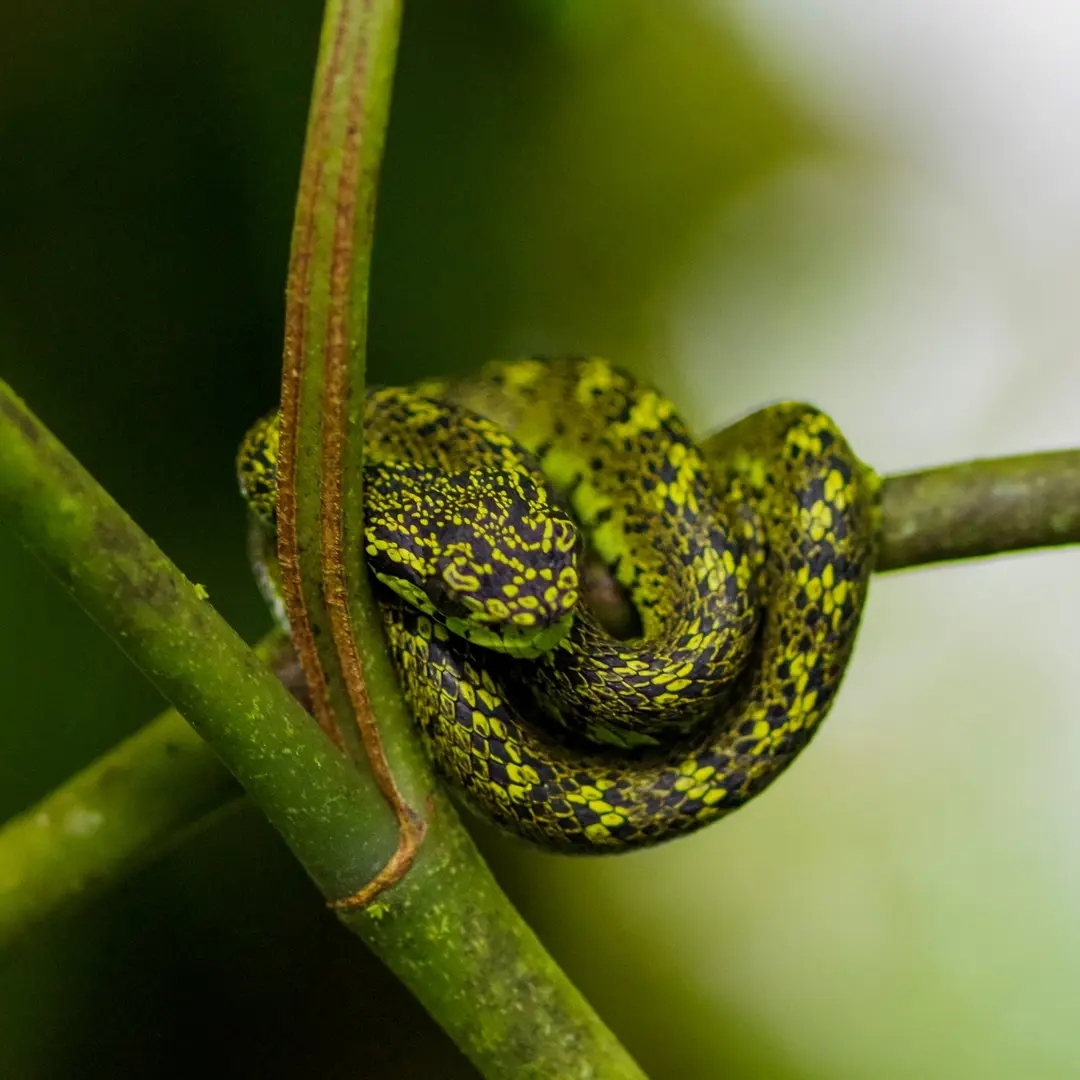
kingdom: Animalia
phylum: Chordata
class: Squamata
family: Viperidae
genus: Bothriechis
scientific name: Bothriechis nigroviridis
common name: Black-speckled palm pit viper
